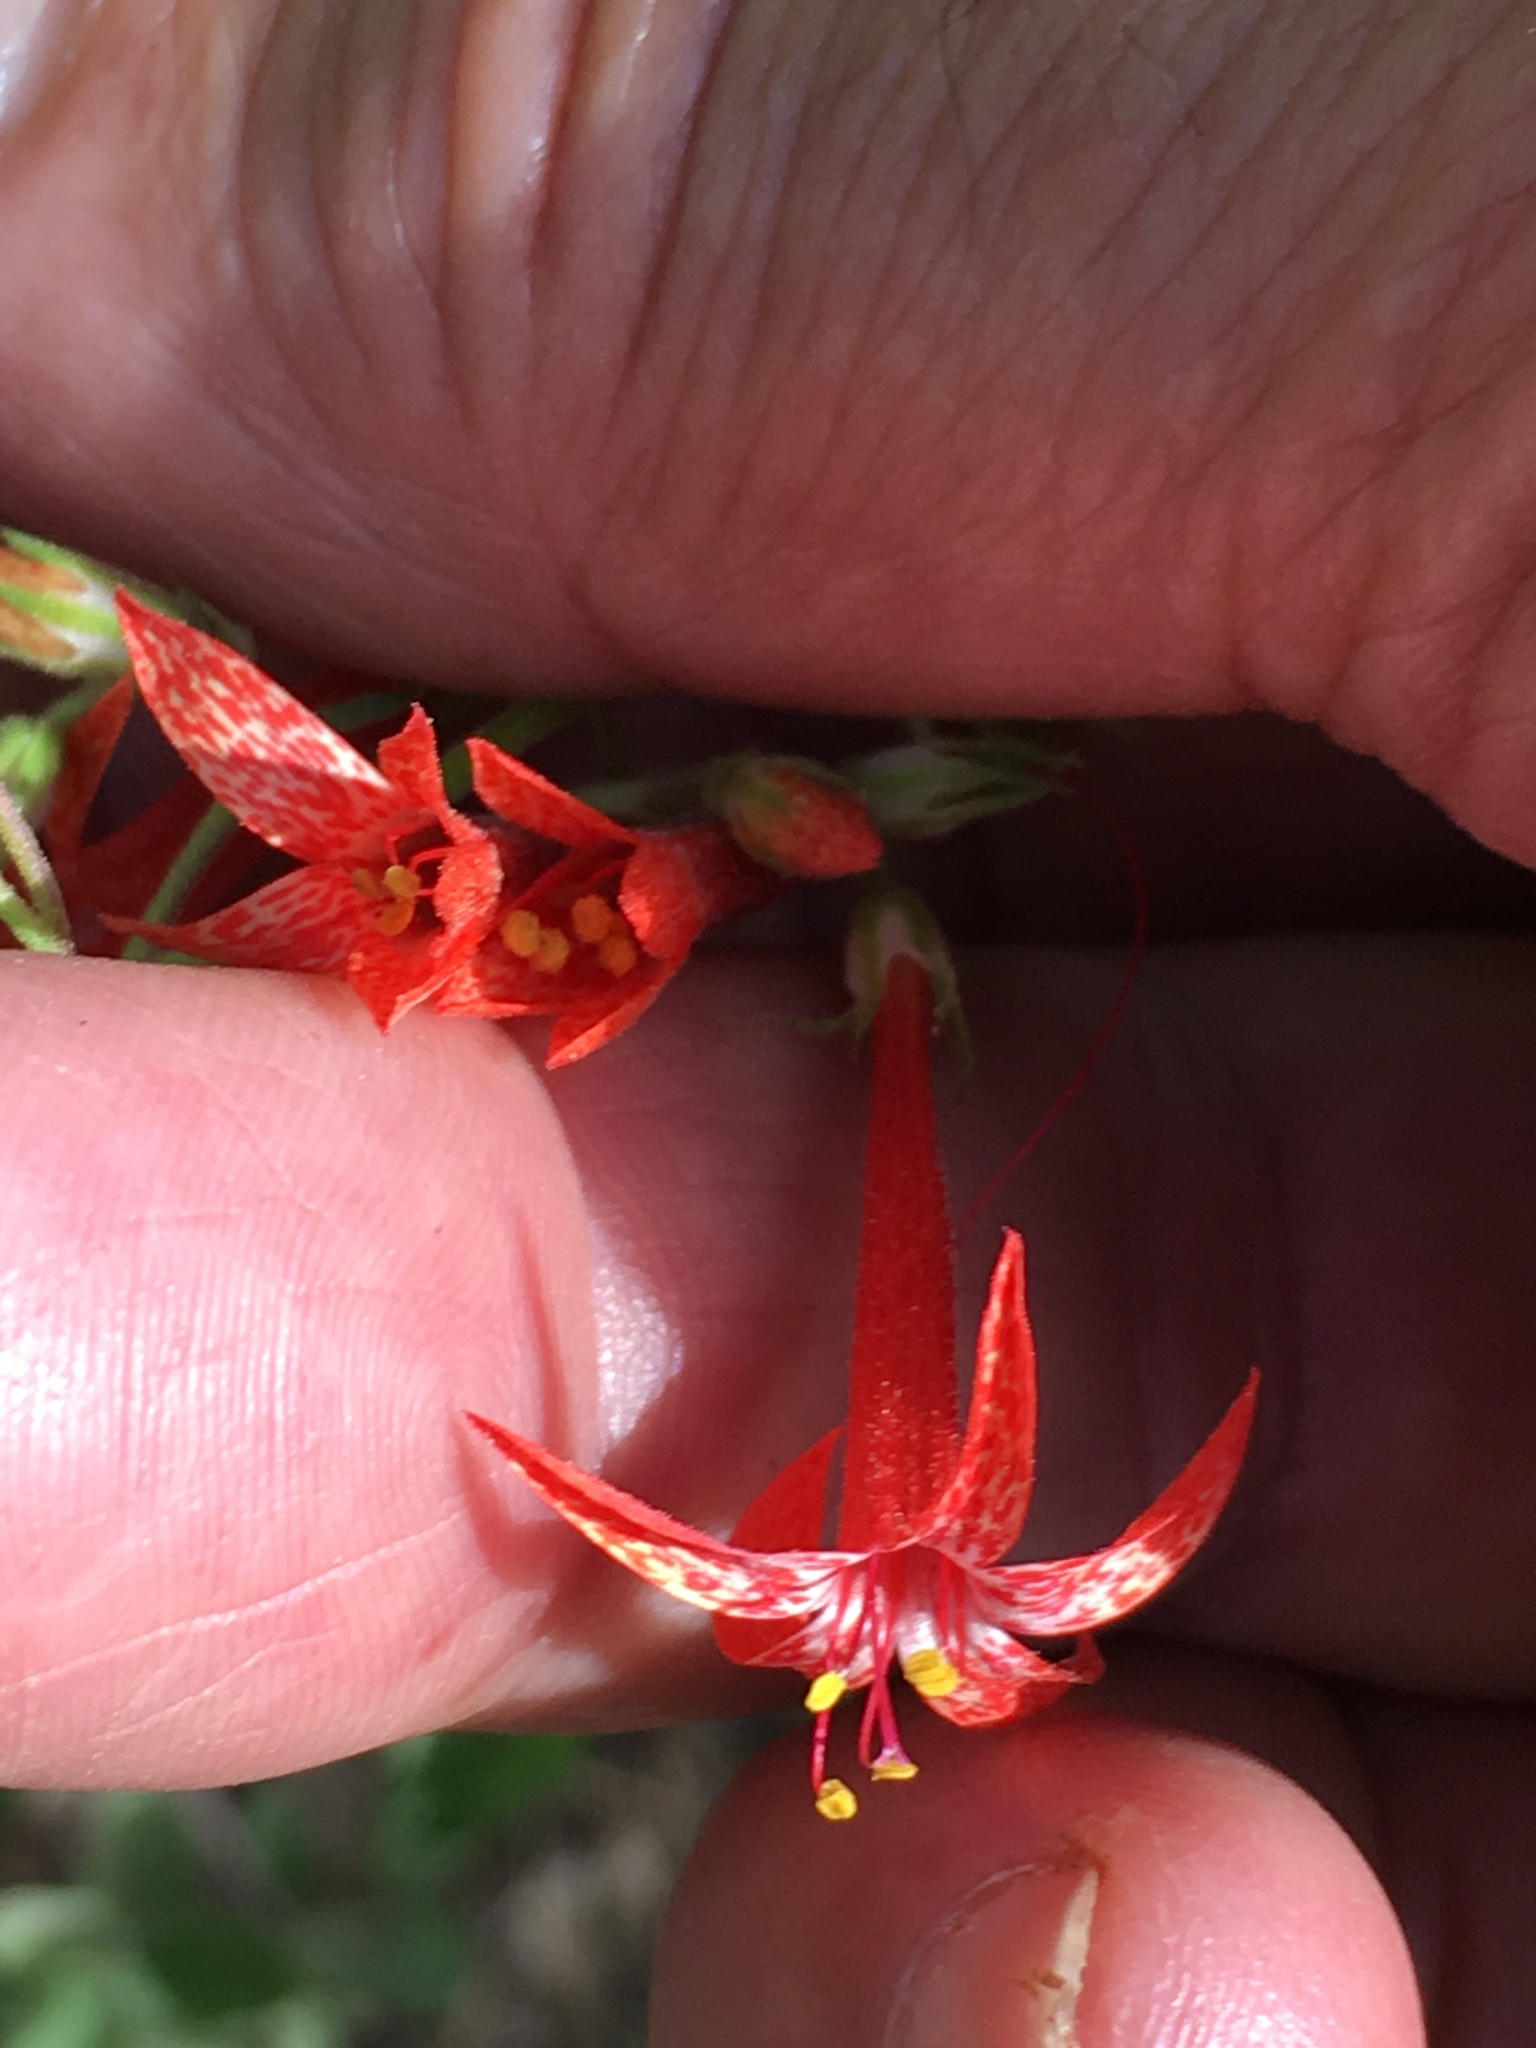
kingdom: Plantae
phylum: Tracheophyta
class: Magnoliopsida
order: Ericales
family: Polemoniaceae
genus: Ipomopsis
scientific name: Ipomopsis aggregata
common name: Scarlet gilia
